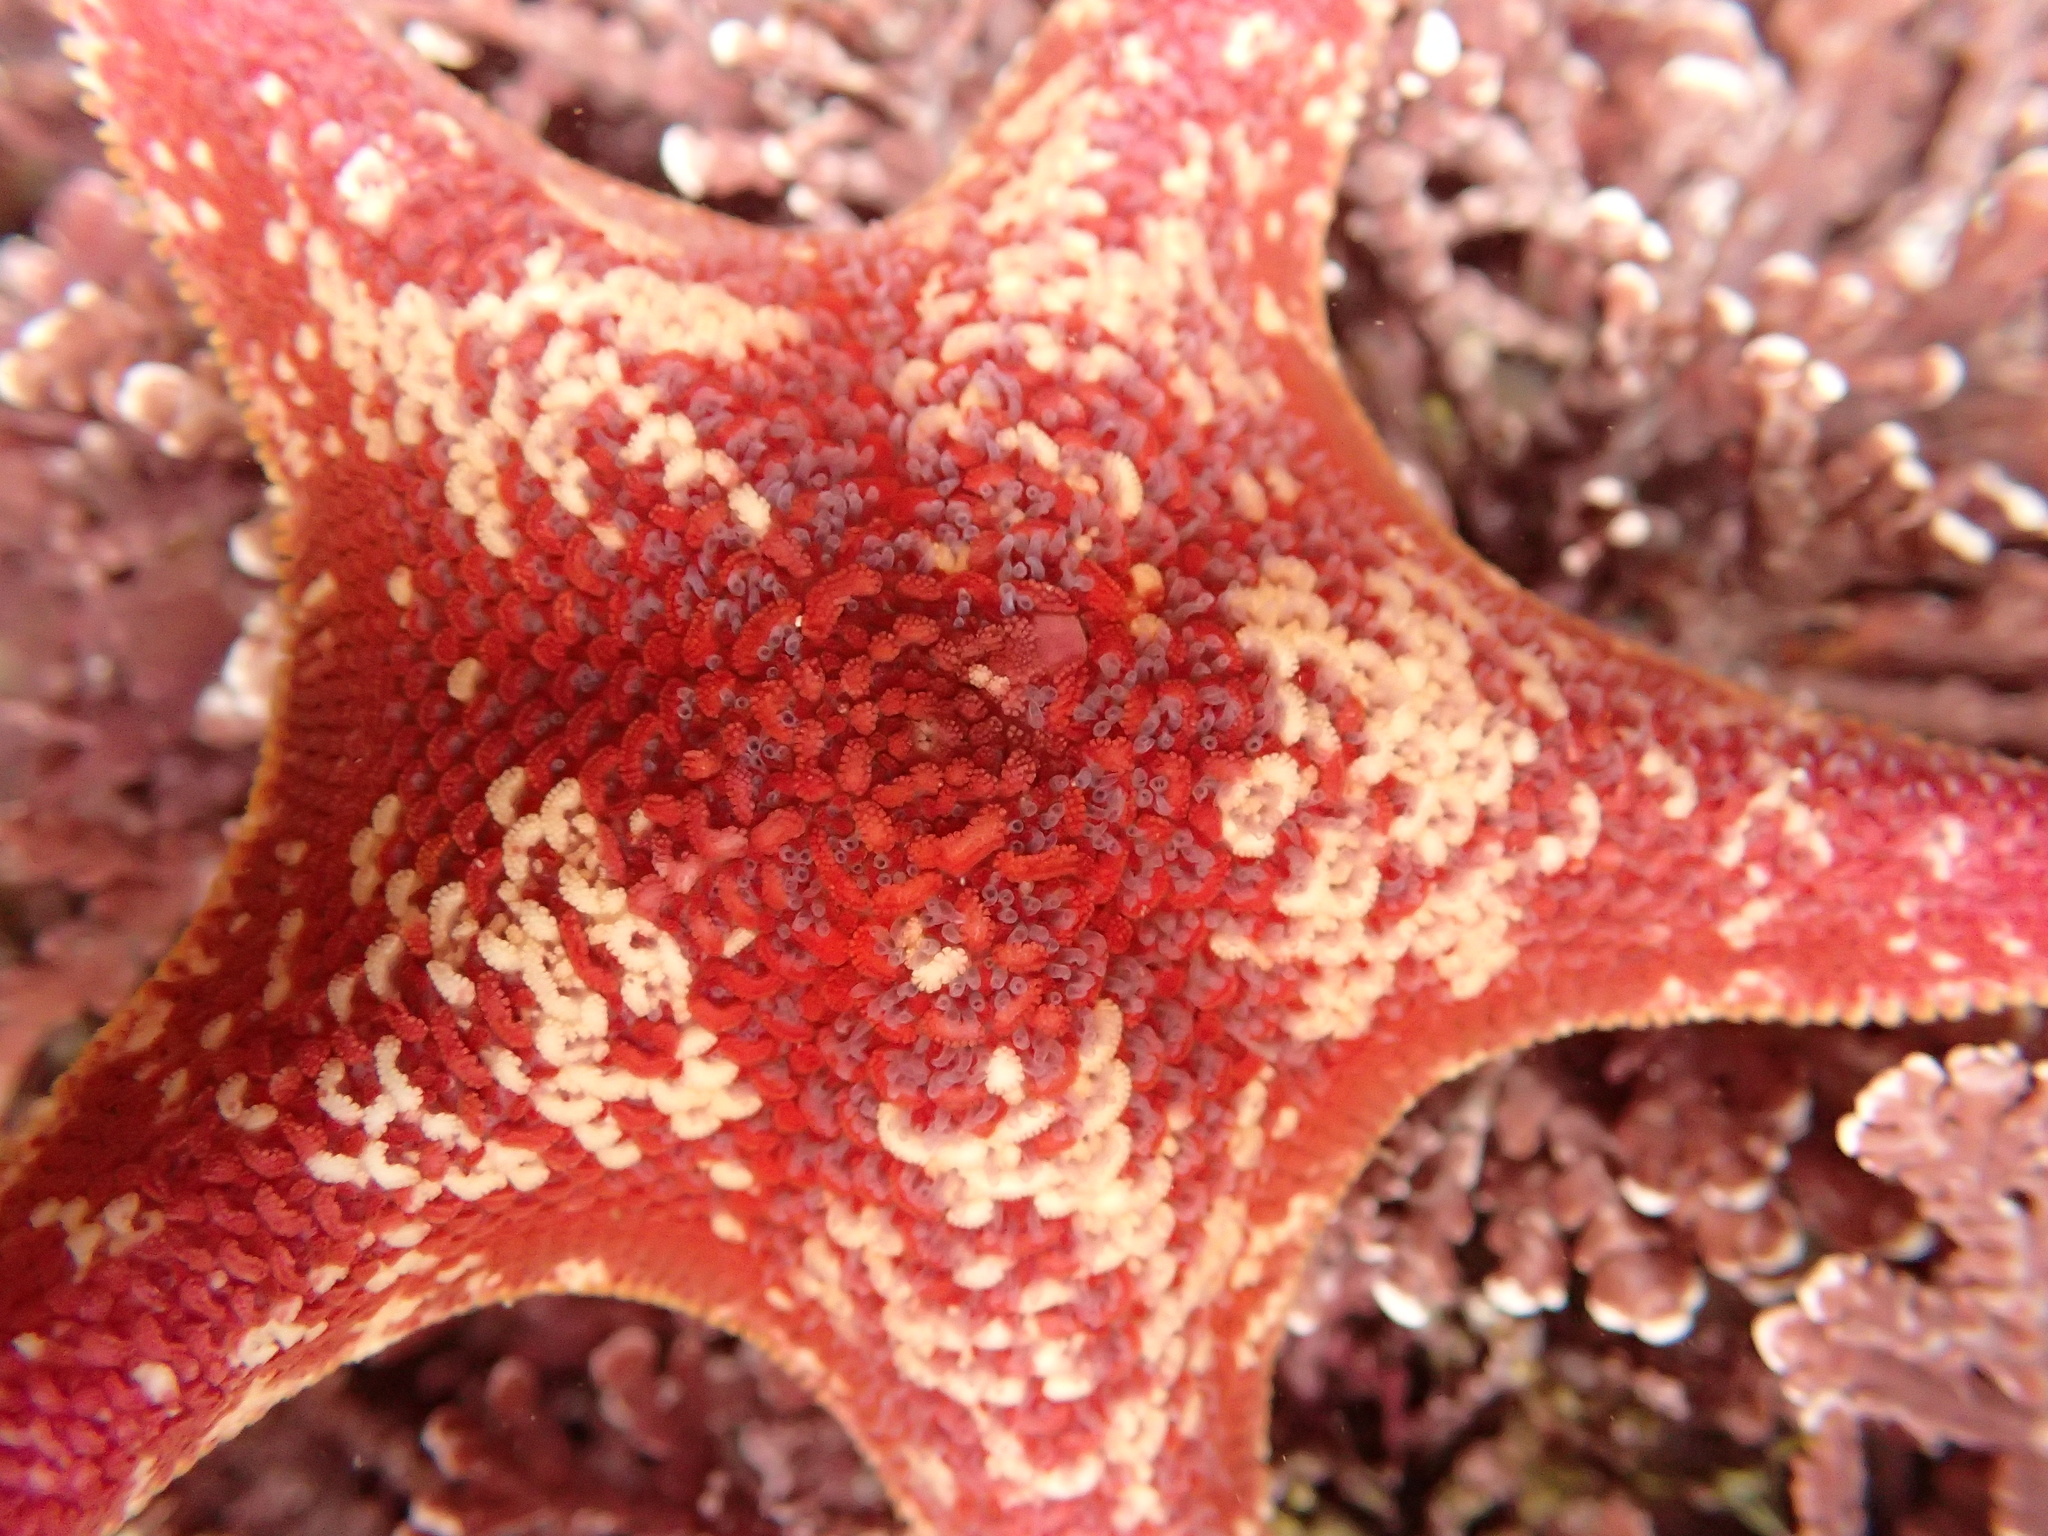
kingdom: Animalia
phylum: Echinodermata
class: Asteroidea
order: Valvatida
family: Asterinidae
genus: Patiria
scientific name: Patiria miniata
